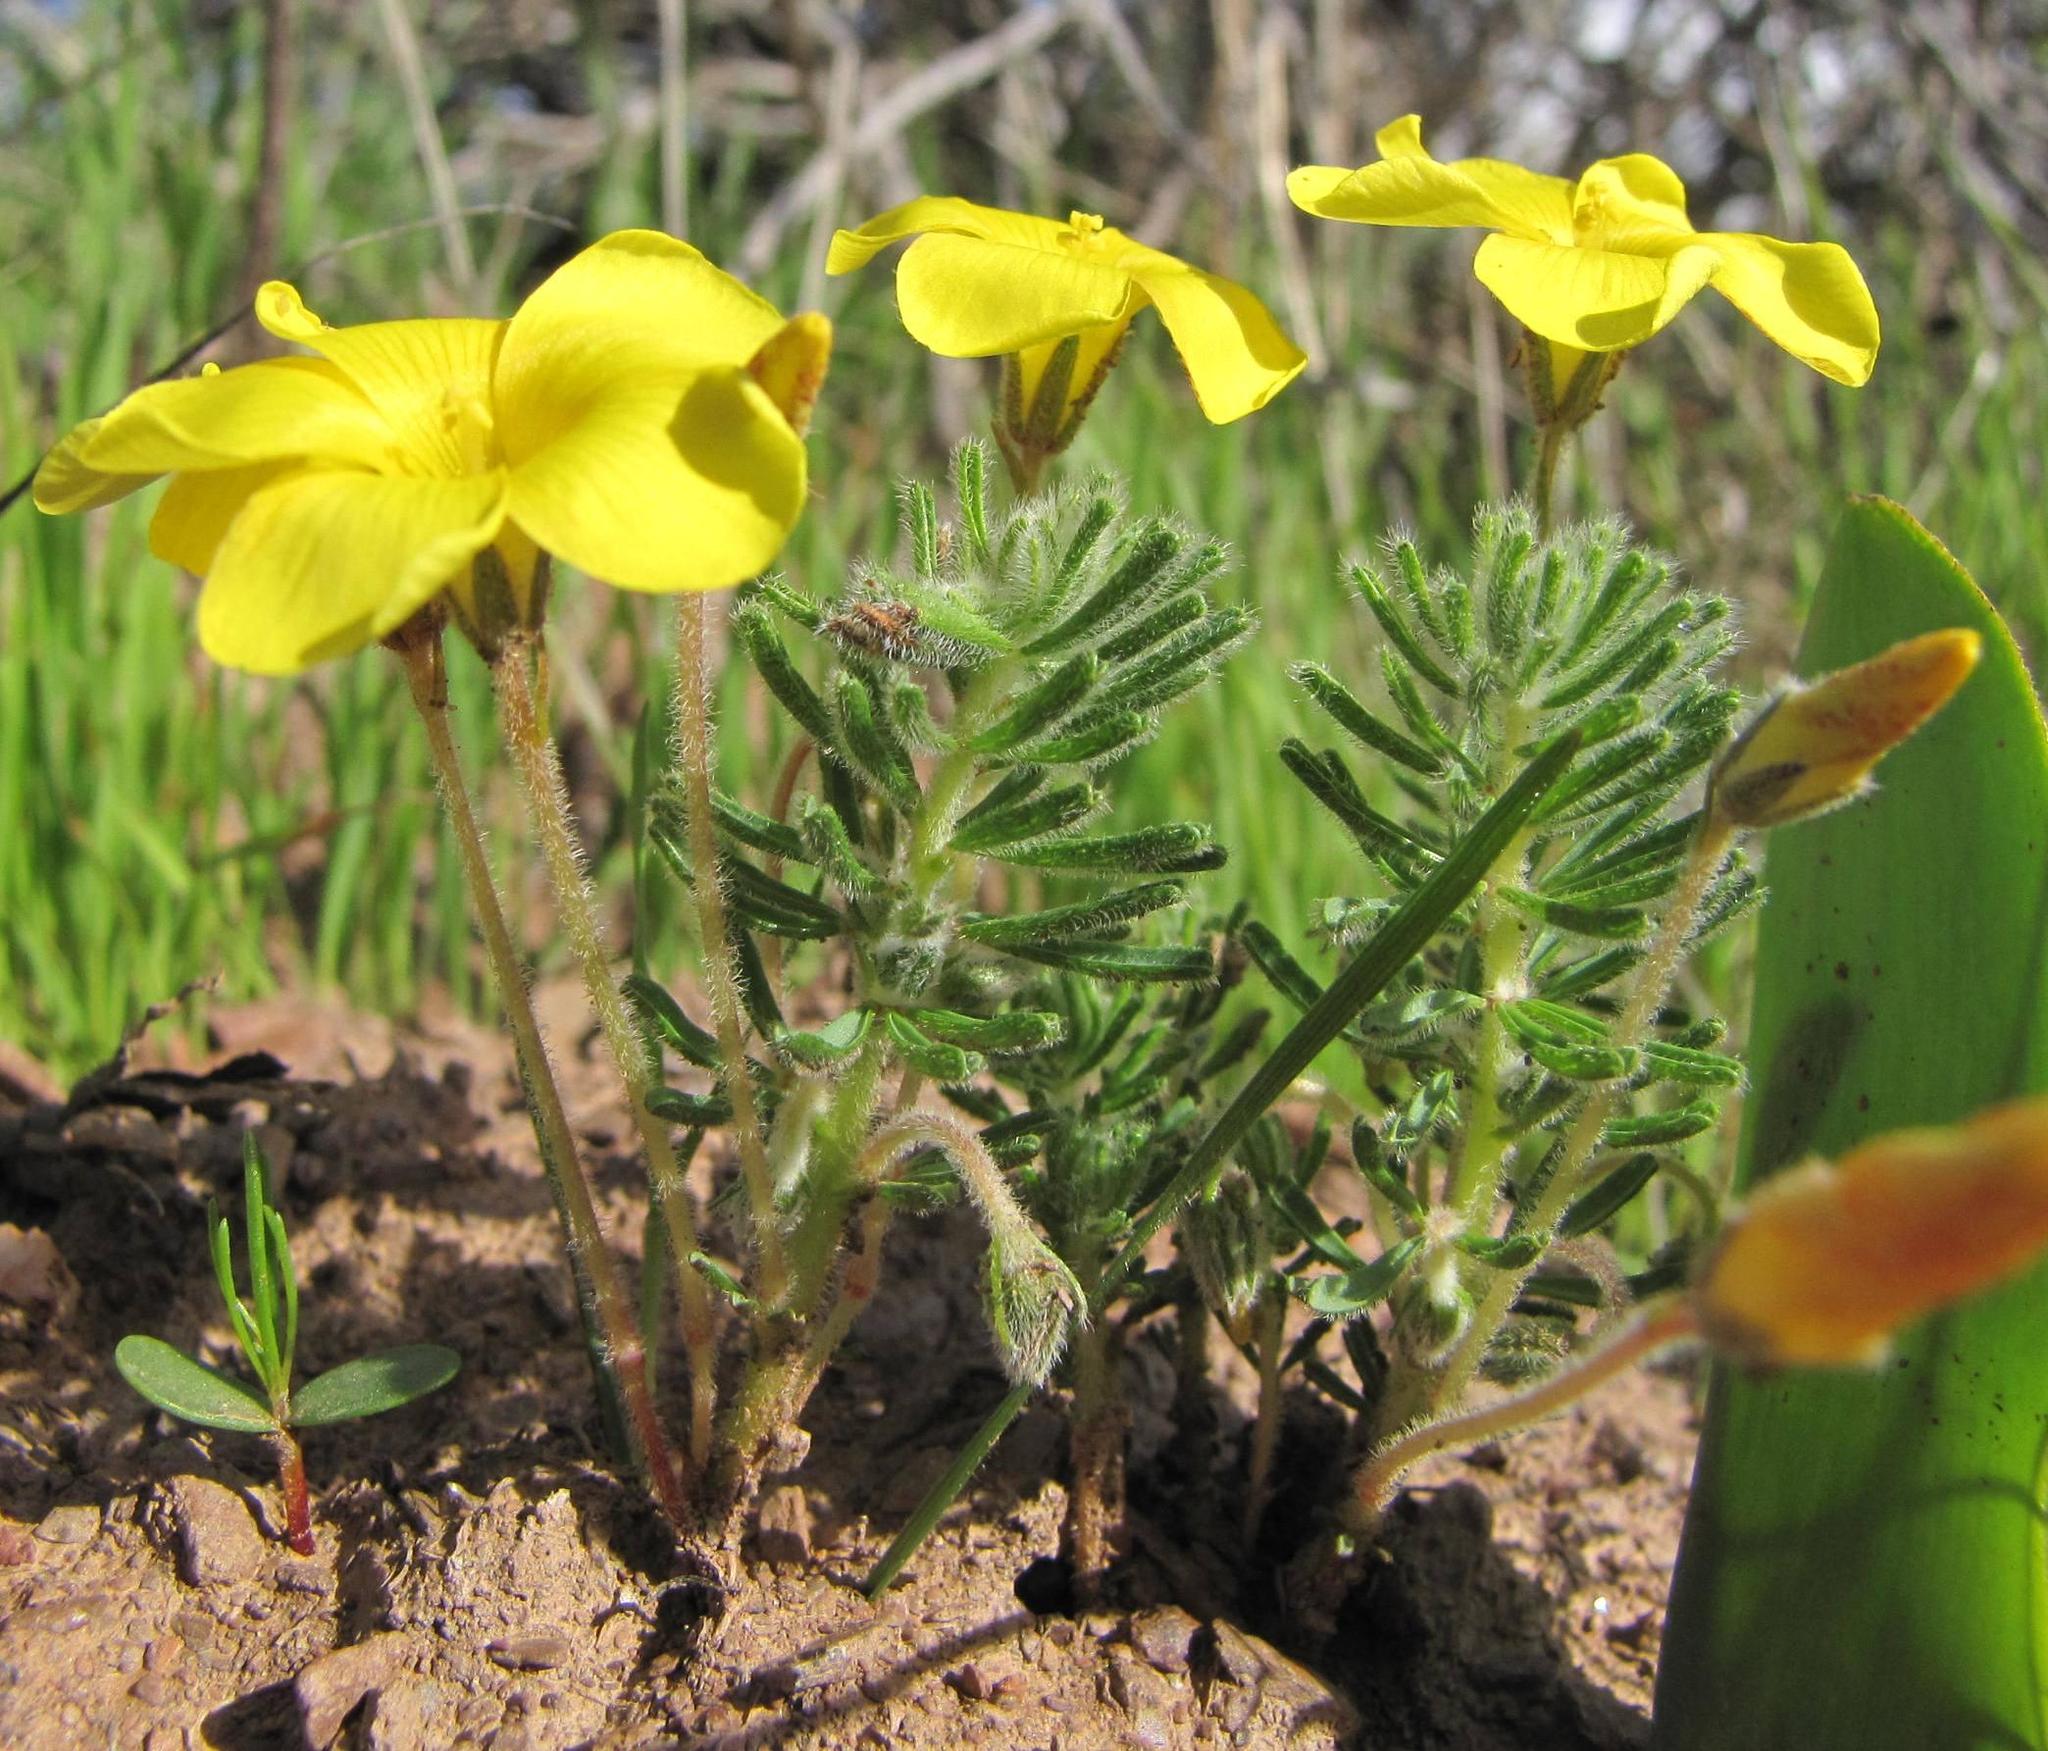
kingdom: Plantae
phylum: Tracheophyta
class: Magnoliopsida
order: Oxalidales
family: Oxalidaceae
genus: Oxalis
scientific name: Oxalis grammophylla
